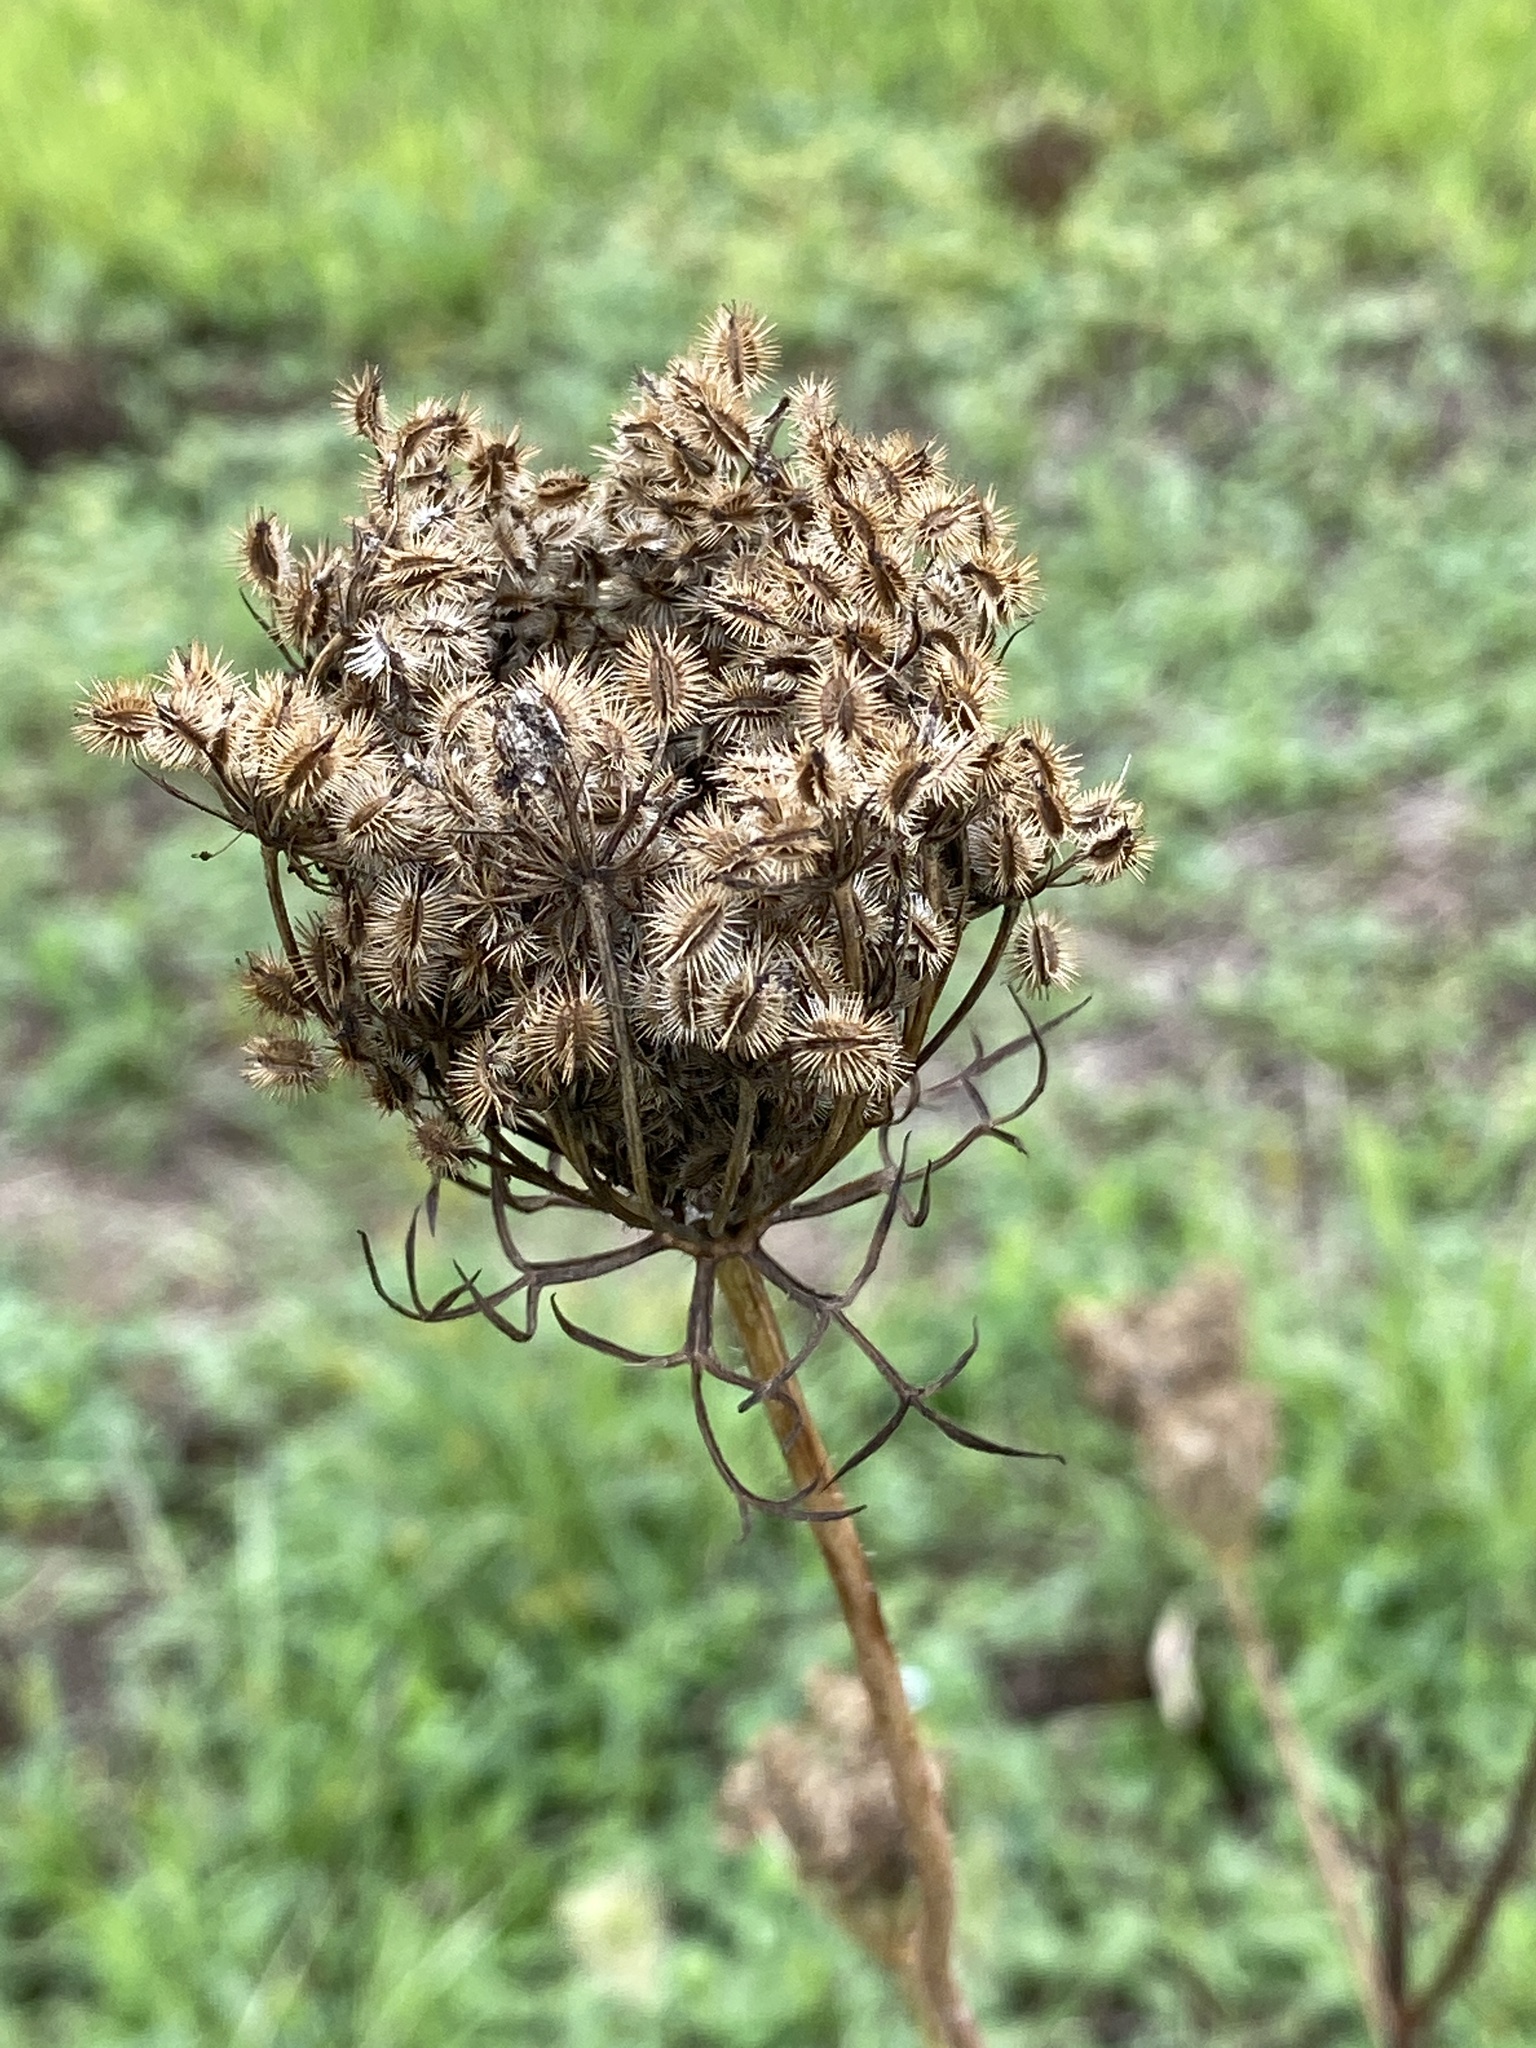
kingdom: Plantae
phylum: Tracheophyta
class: Magnoliopsida
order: Apiales
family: Apiaceae
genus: Daucus
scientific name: Daucus carota
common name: Wild carrot
